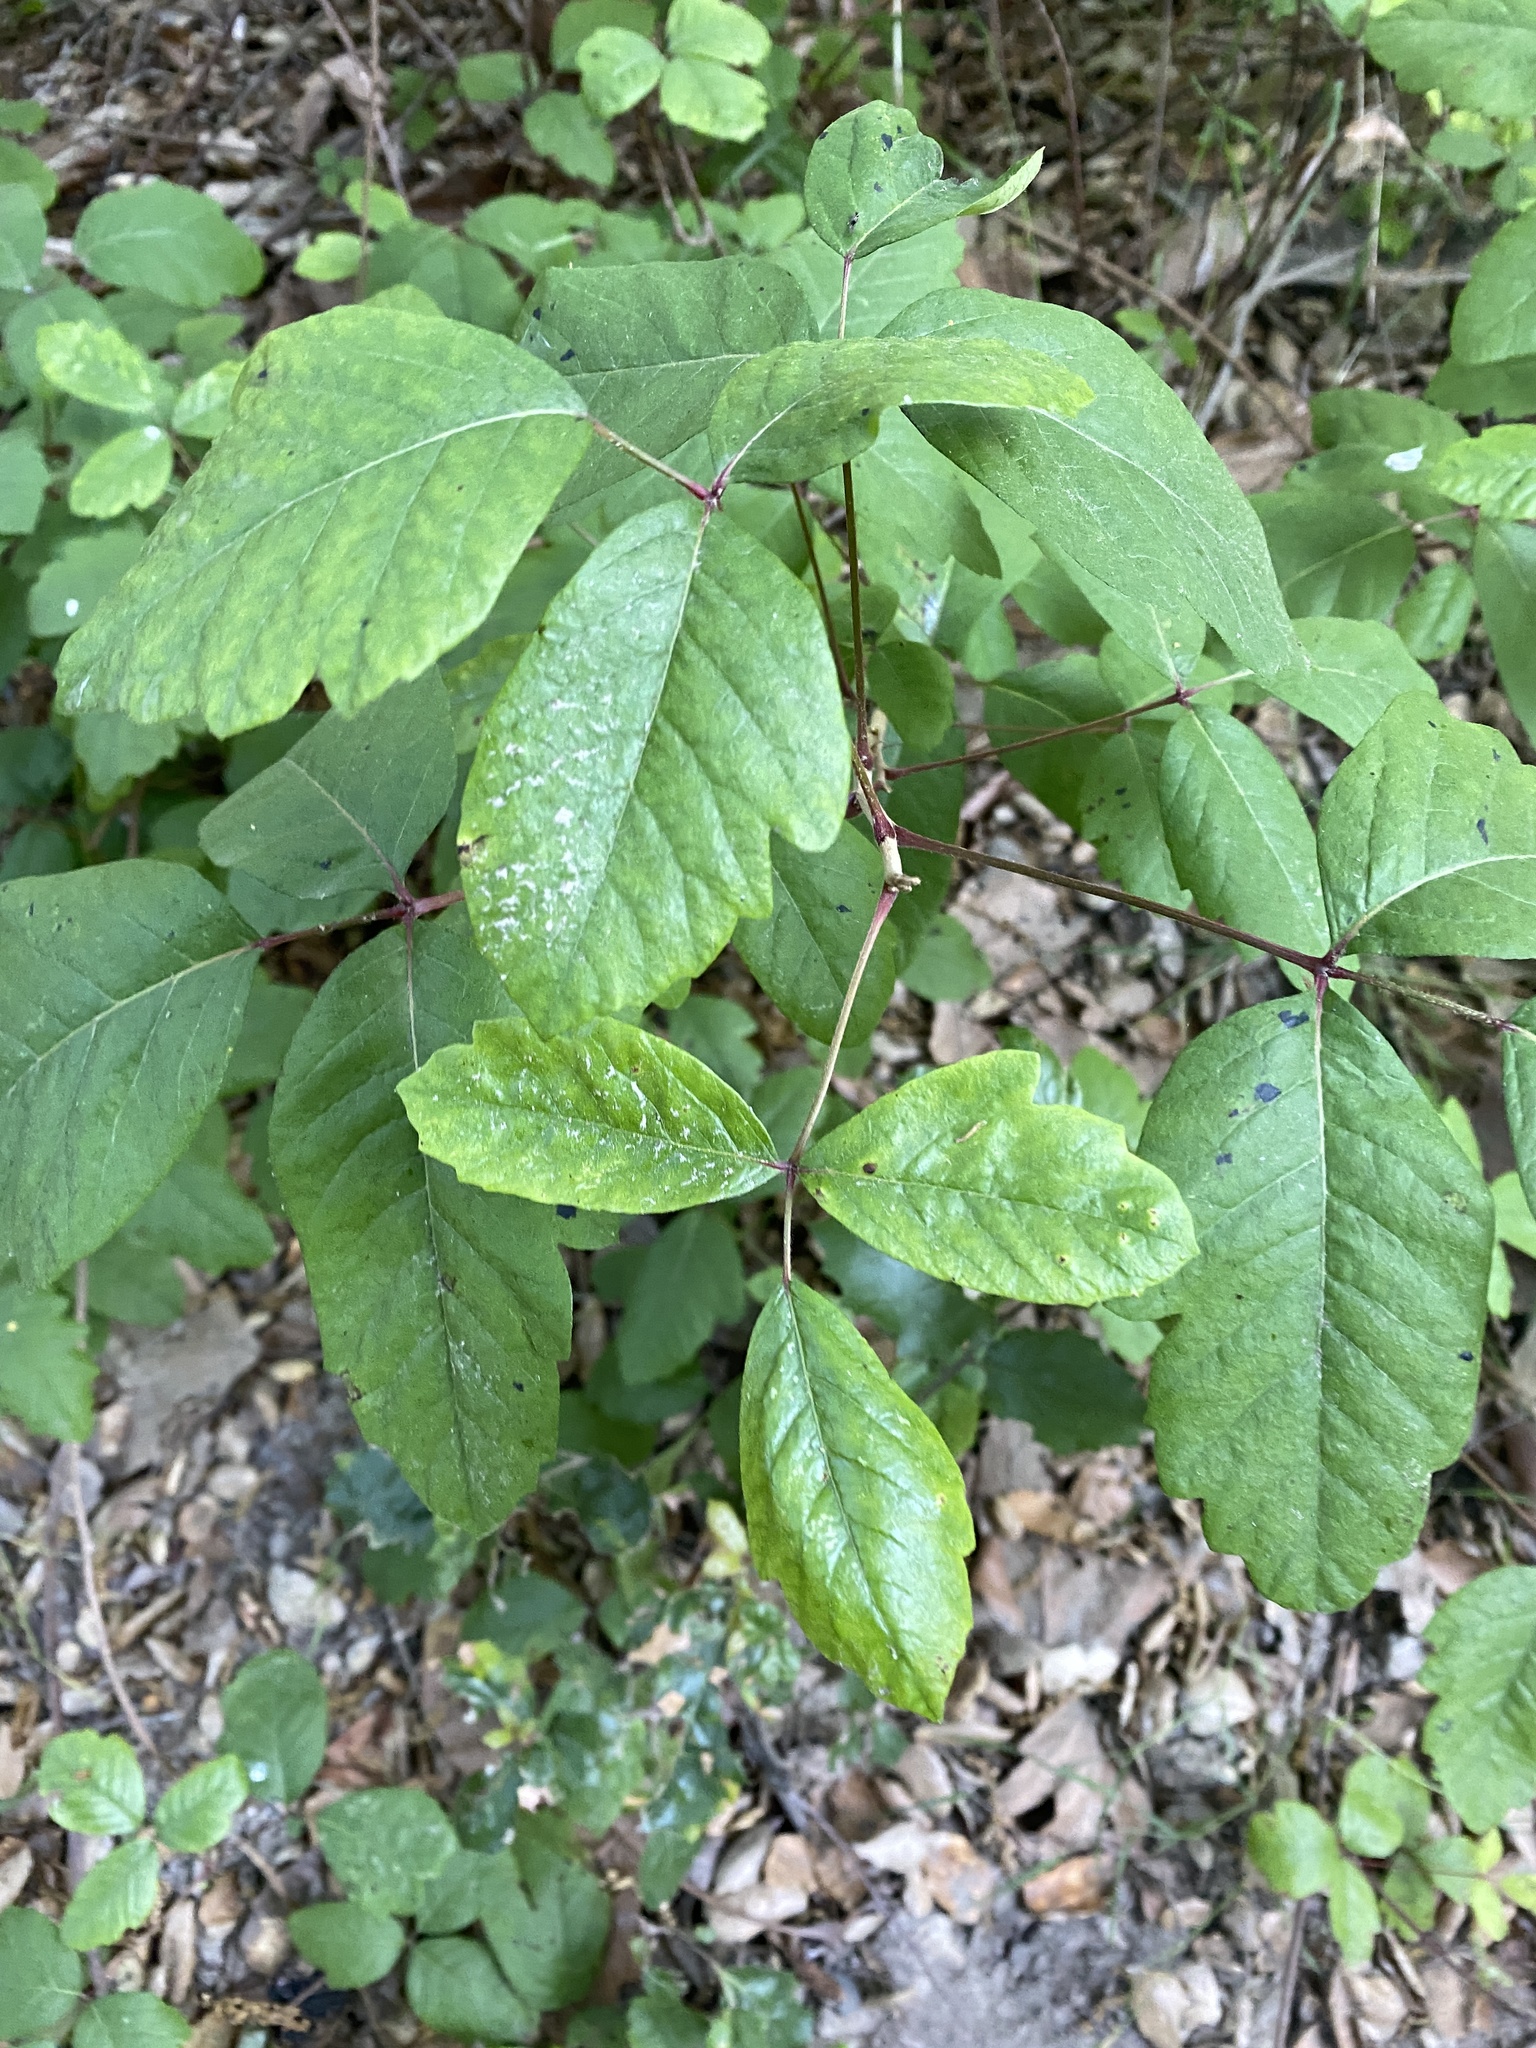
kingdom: Plantae
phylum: Tracheophyta
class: Magnoliopsida
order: Sapindales
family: Anacardiaceae
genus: Toxicodendron
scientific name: Toxicodendron diversilobum
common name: Pacific poison-oak
